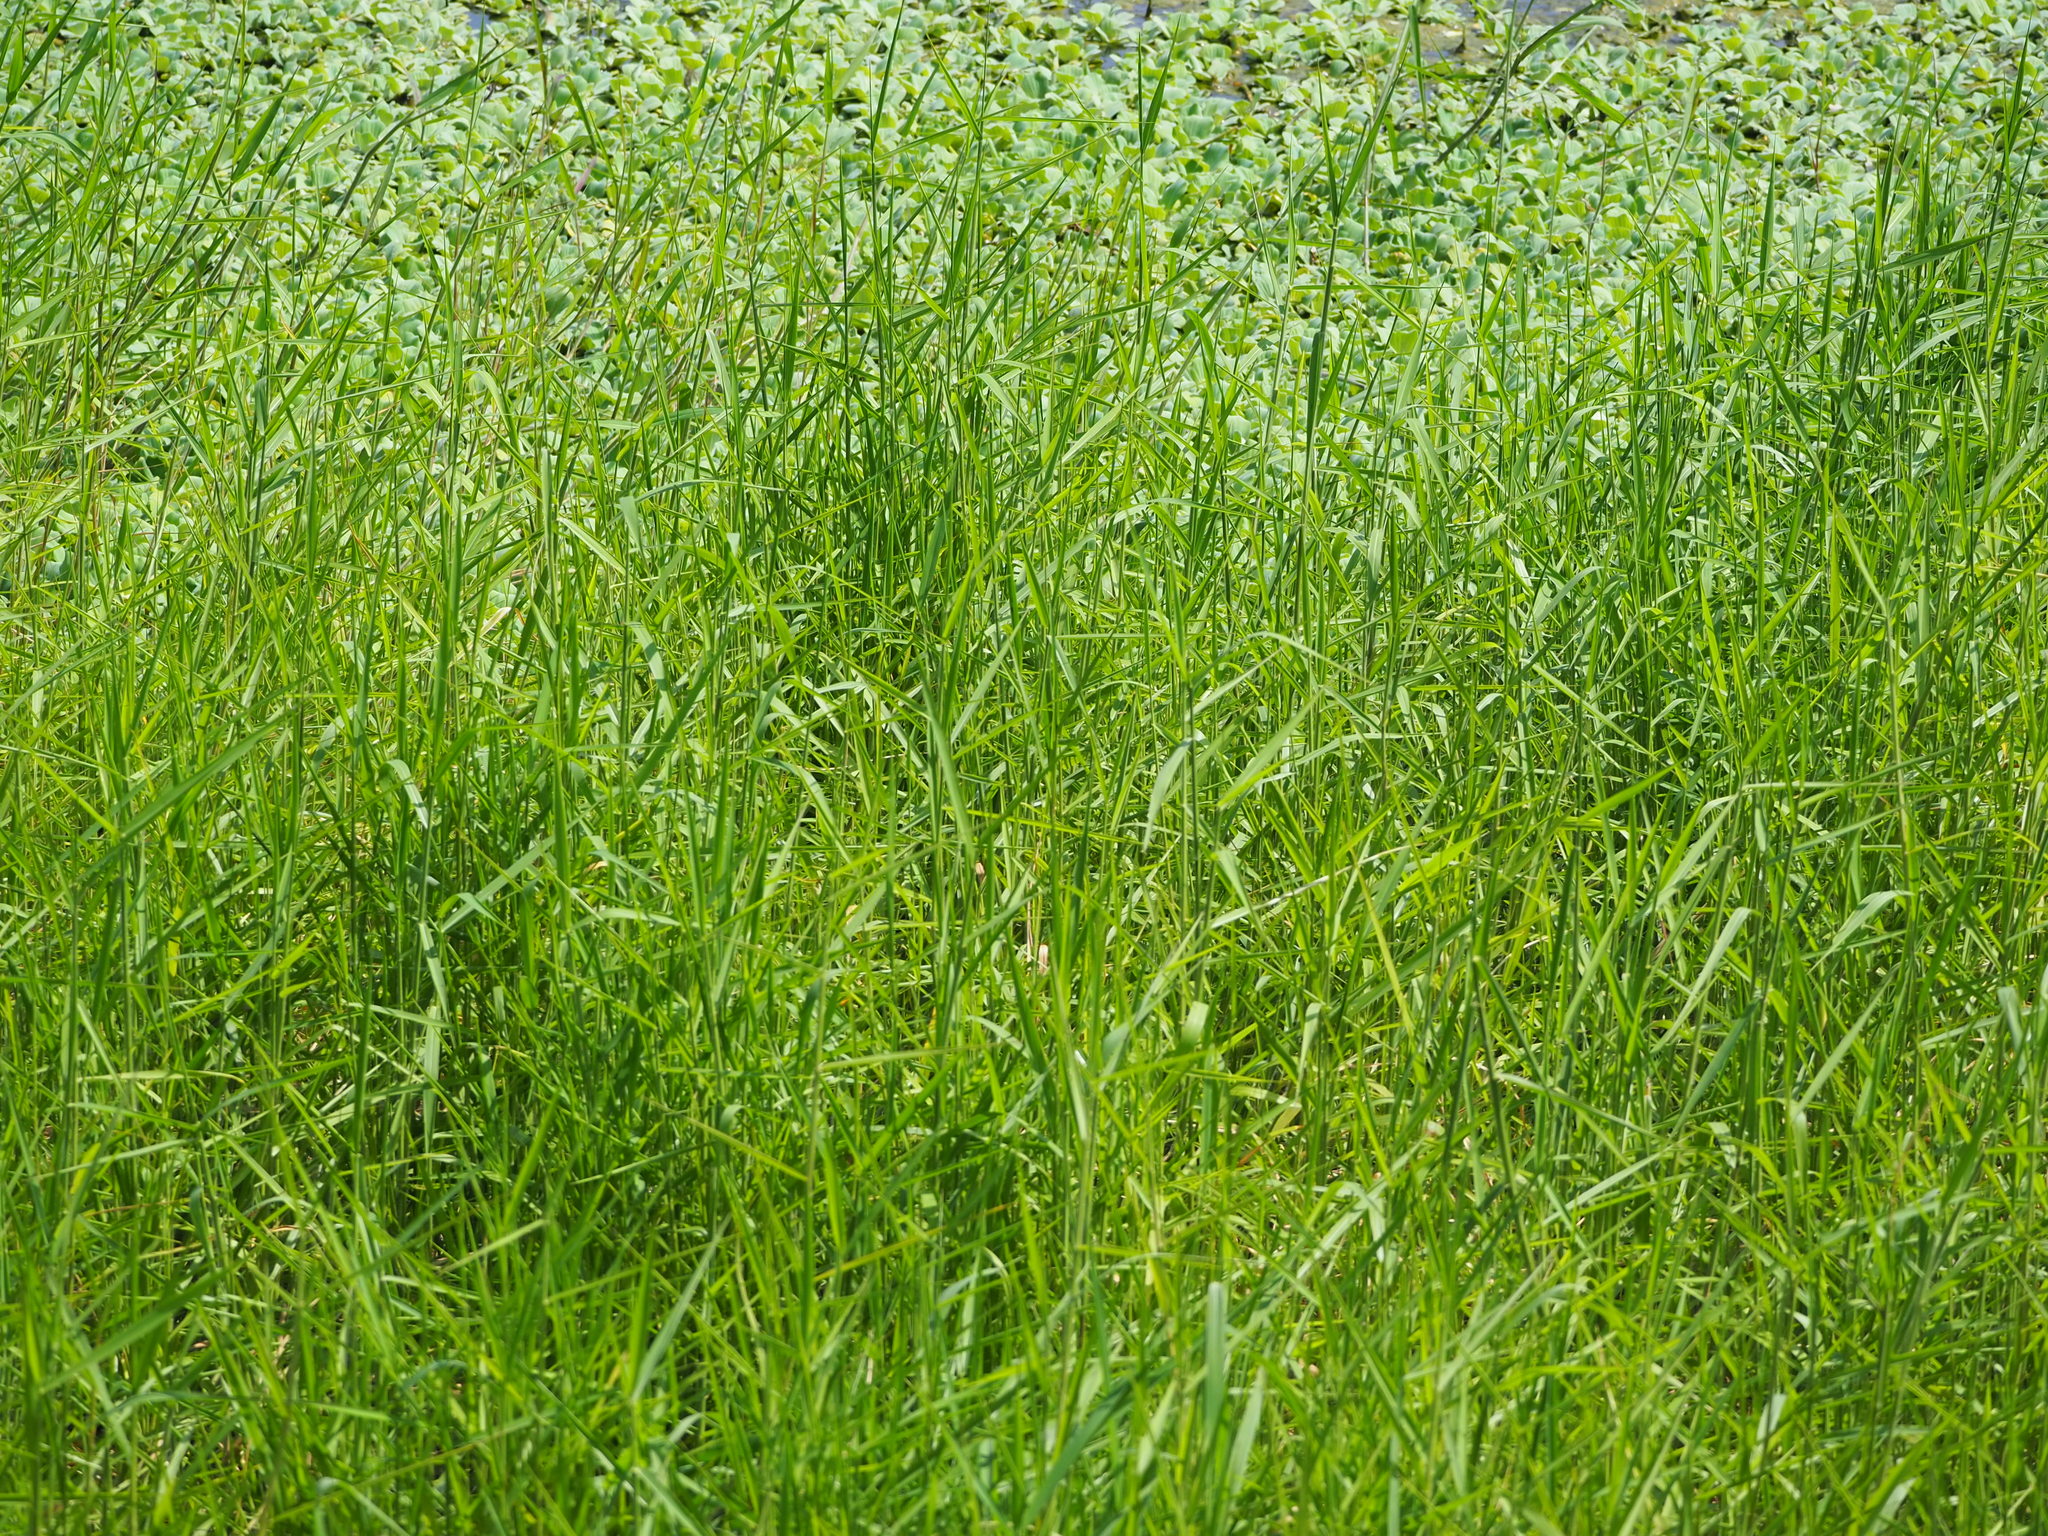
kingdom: Plantae
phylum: Tracheophyta
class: Liliopsida
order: Poales
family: Poaceae
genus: Urochloa
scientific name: Urochloa mutica
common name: Para grass
